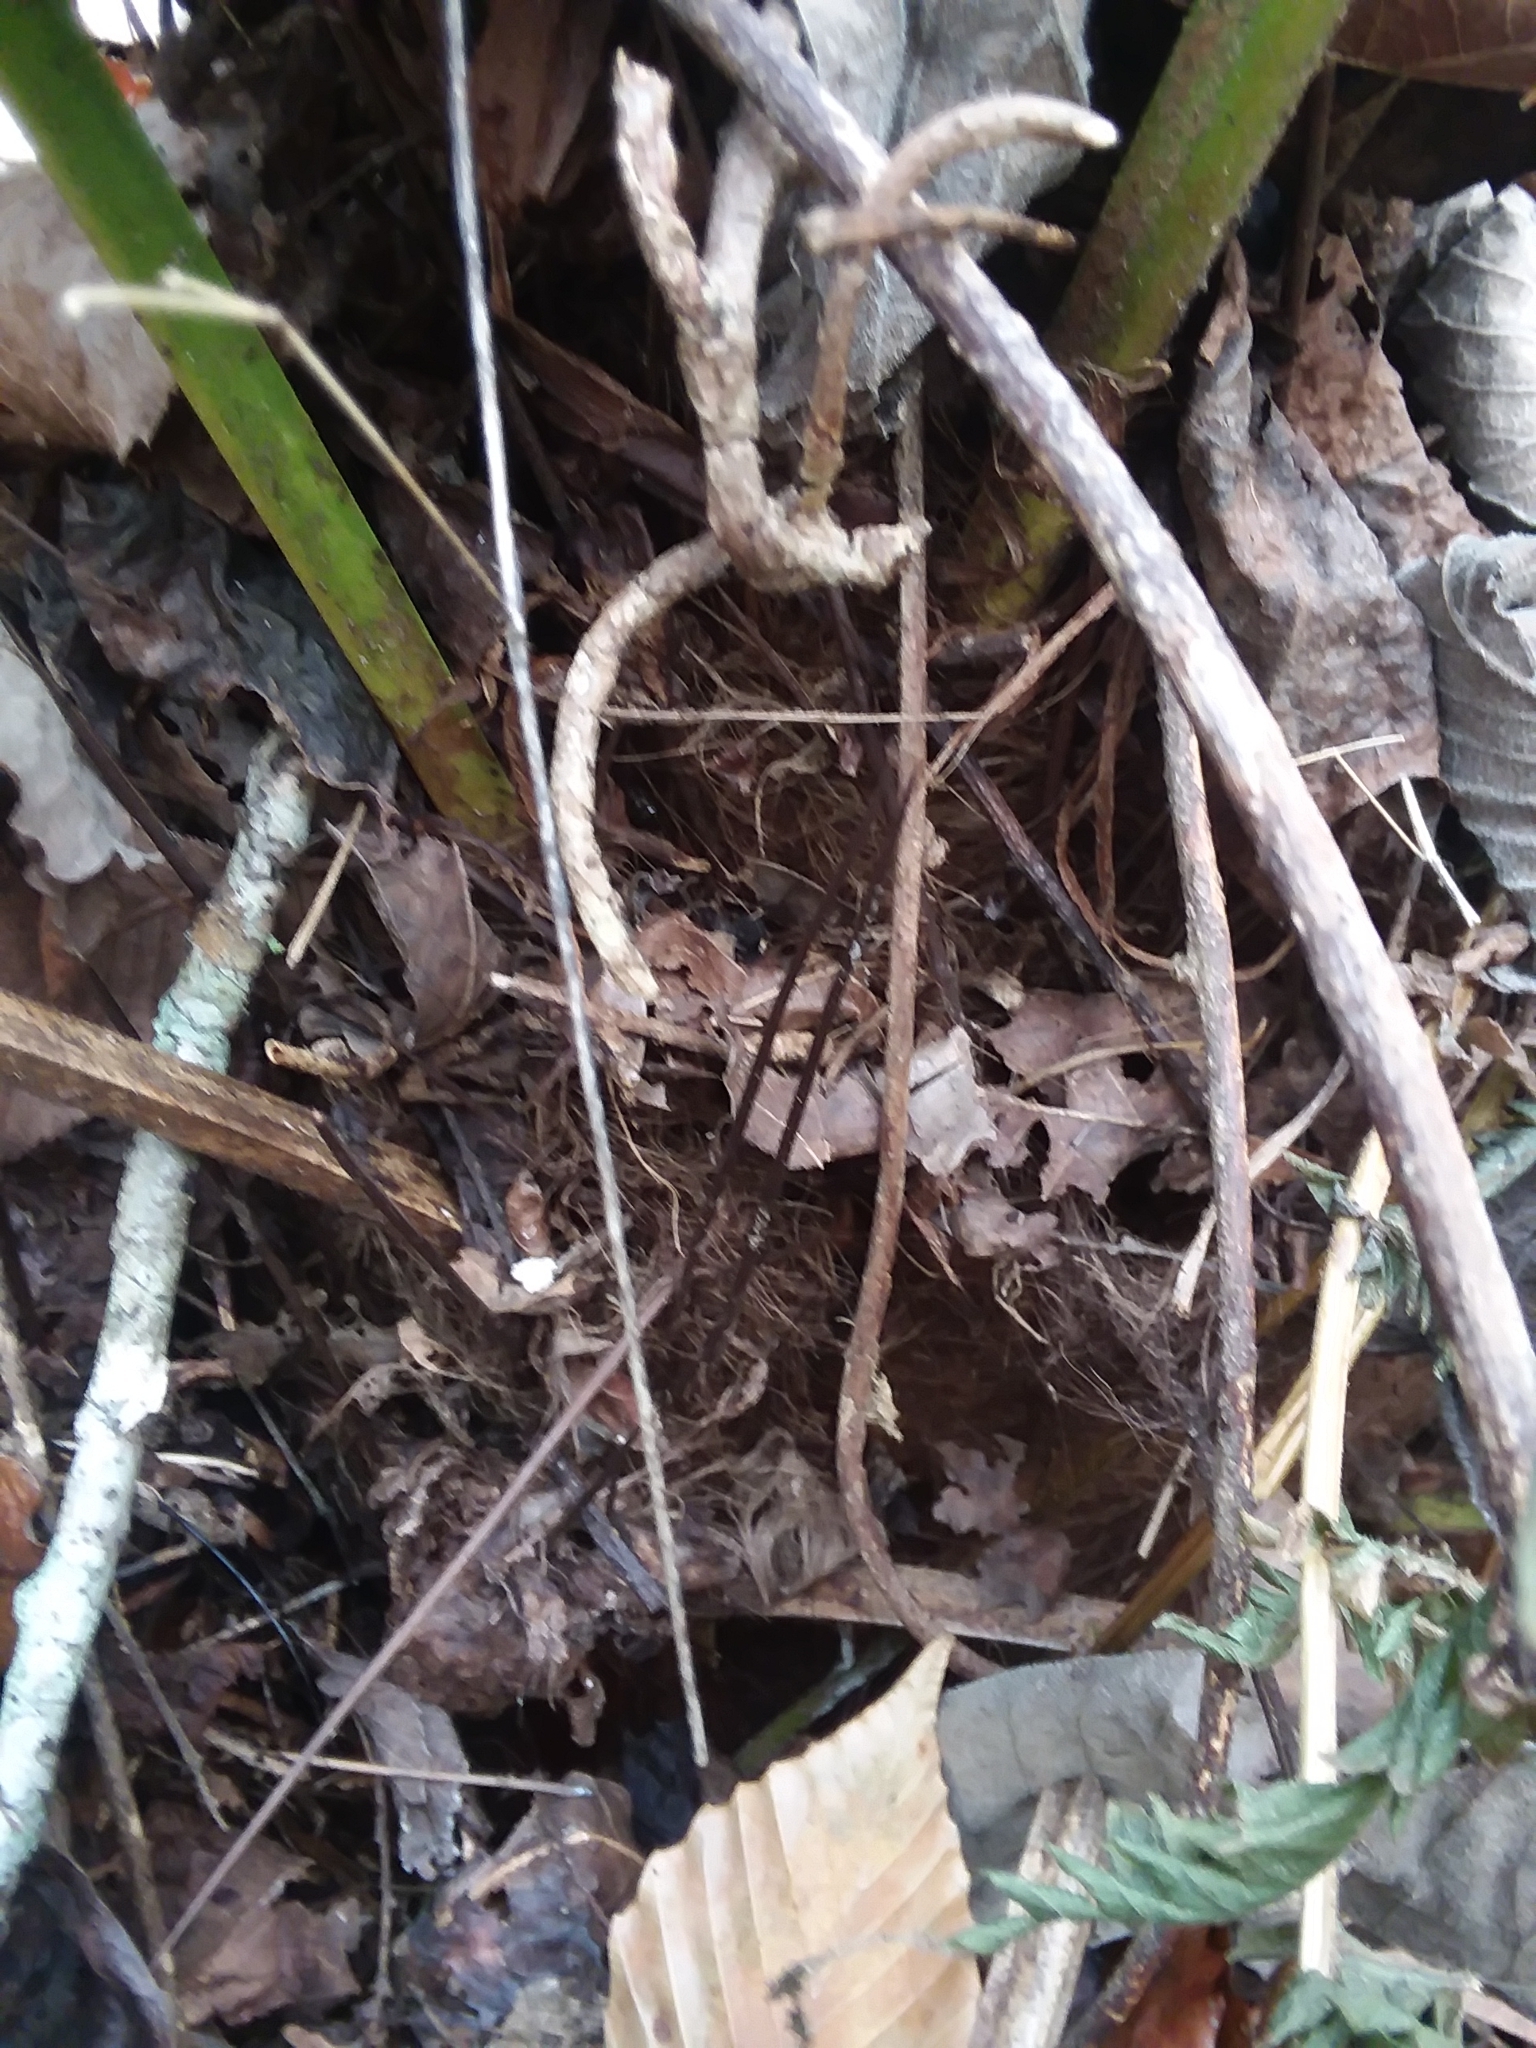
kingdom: Plantae
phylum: Tracheophyta
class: Liliopsida
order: Arecales
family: Arecaceae
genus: Rhapidophyllum
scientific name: Rhapidophyllum hystrix
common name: Porcupine palm
